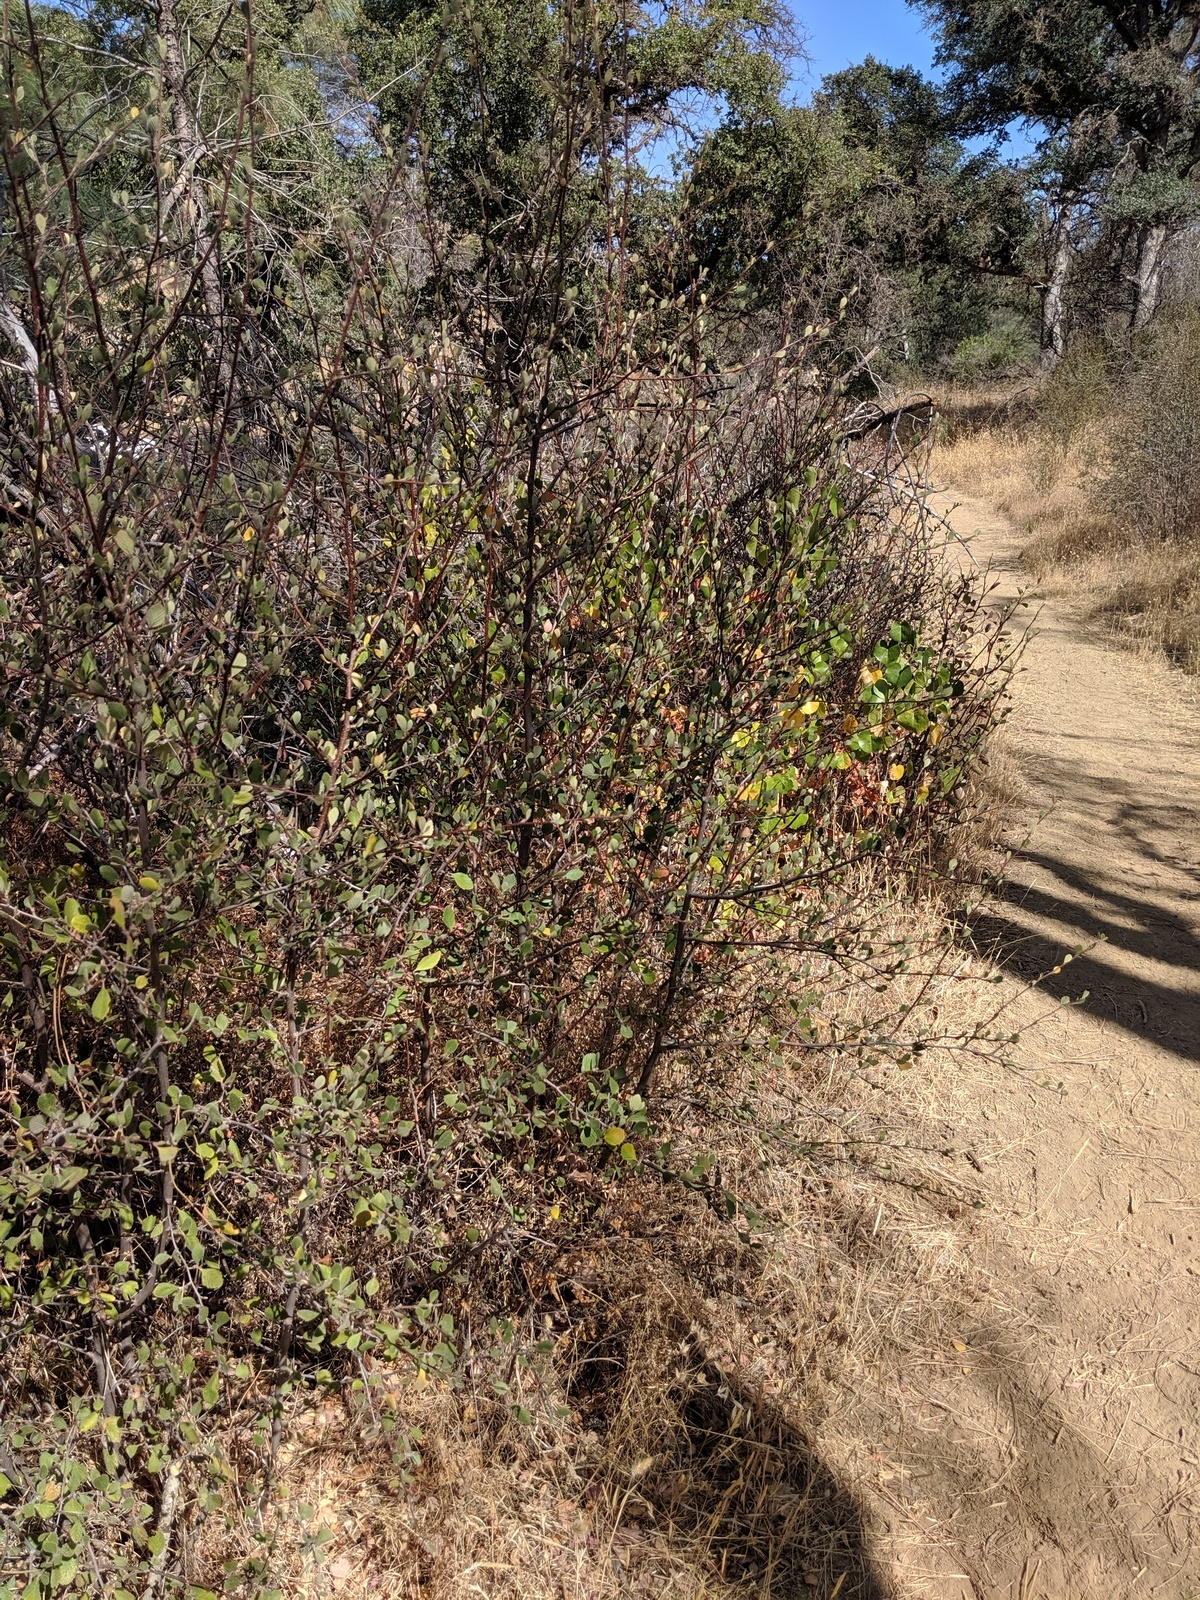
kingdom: Plantae
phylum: Tracheophyta
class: Magnoliopsida
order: Rosales
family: Rosaceae
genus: Cercocarpus
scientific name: Cercocarpus betuloides
